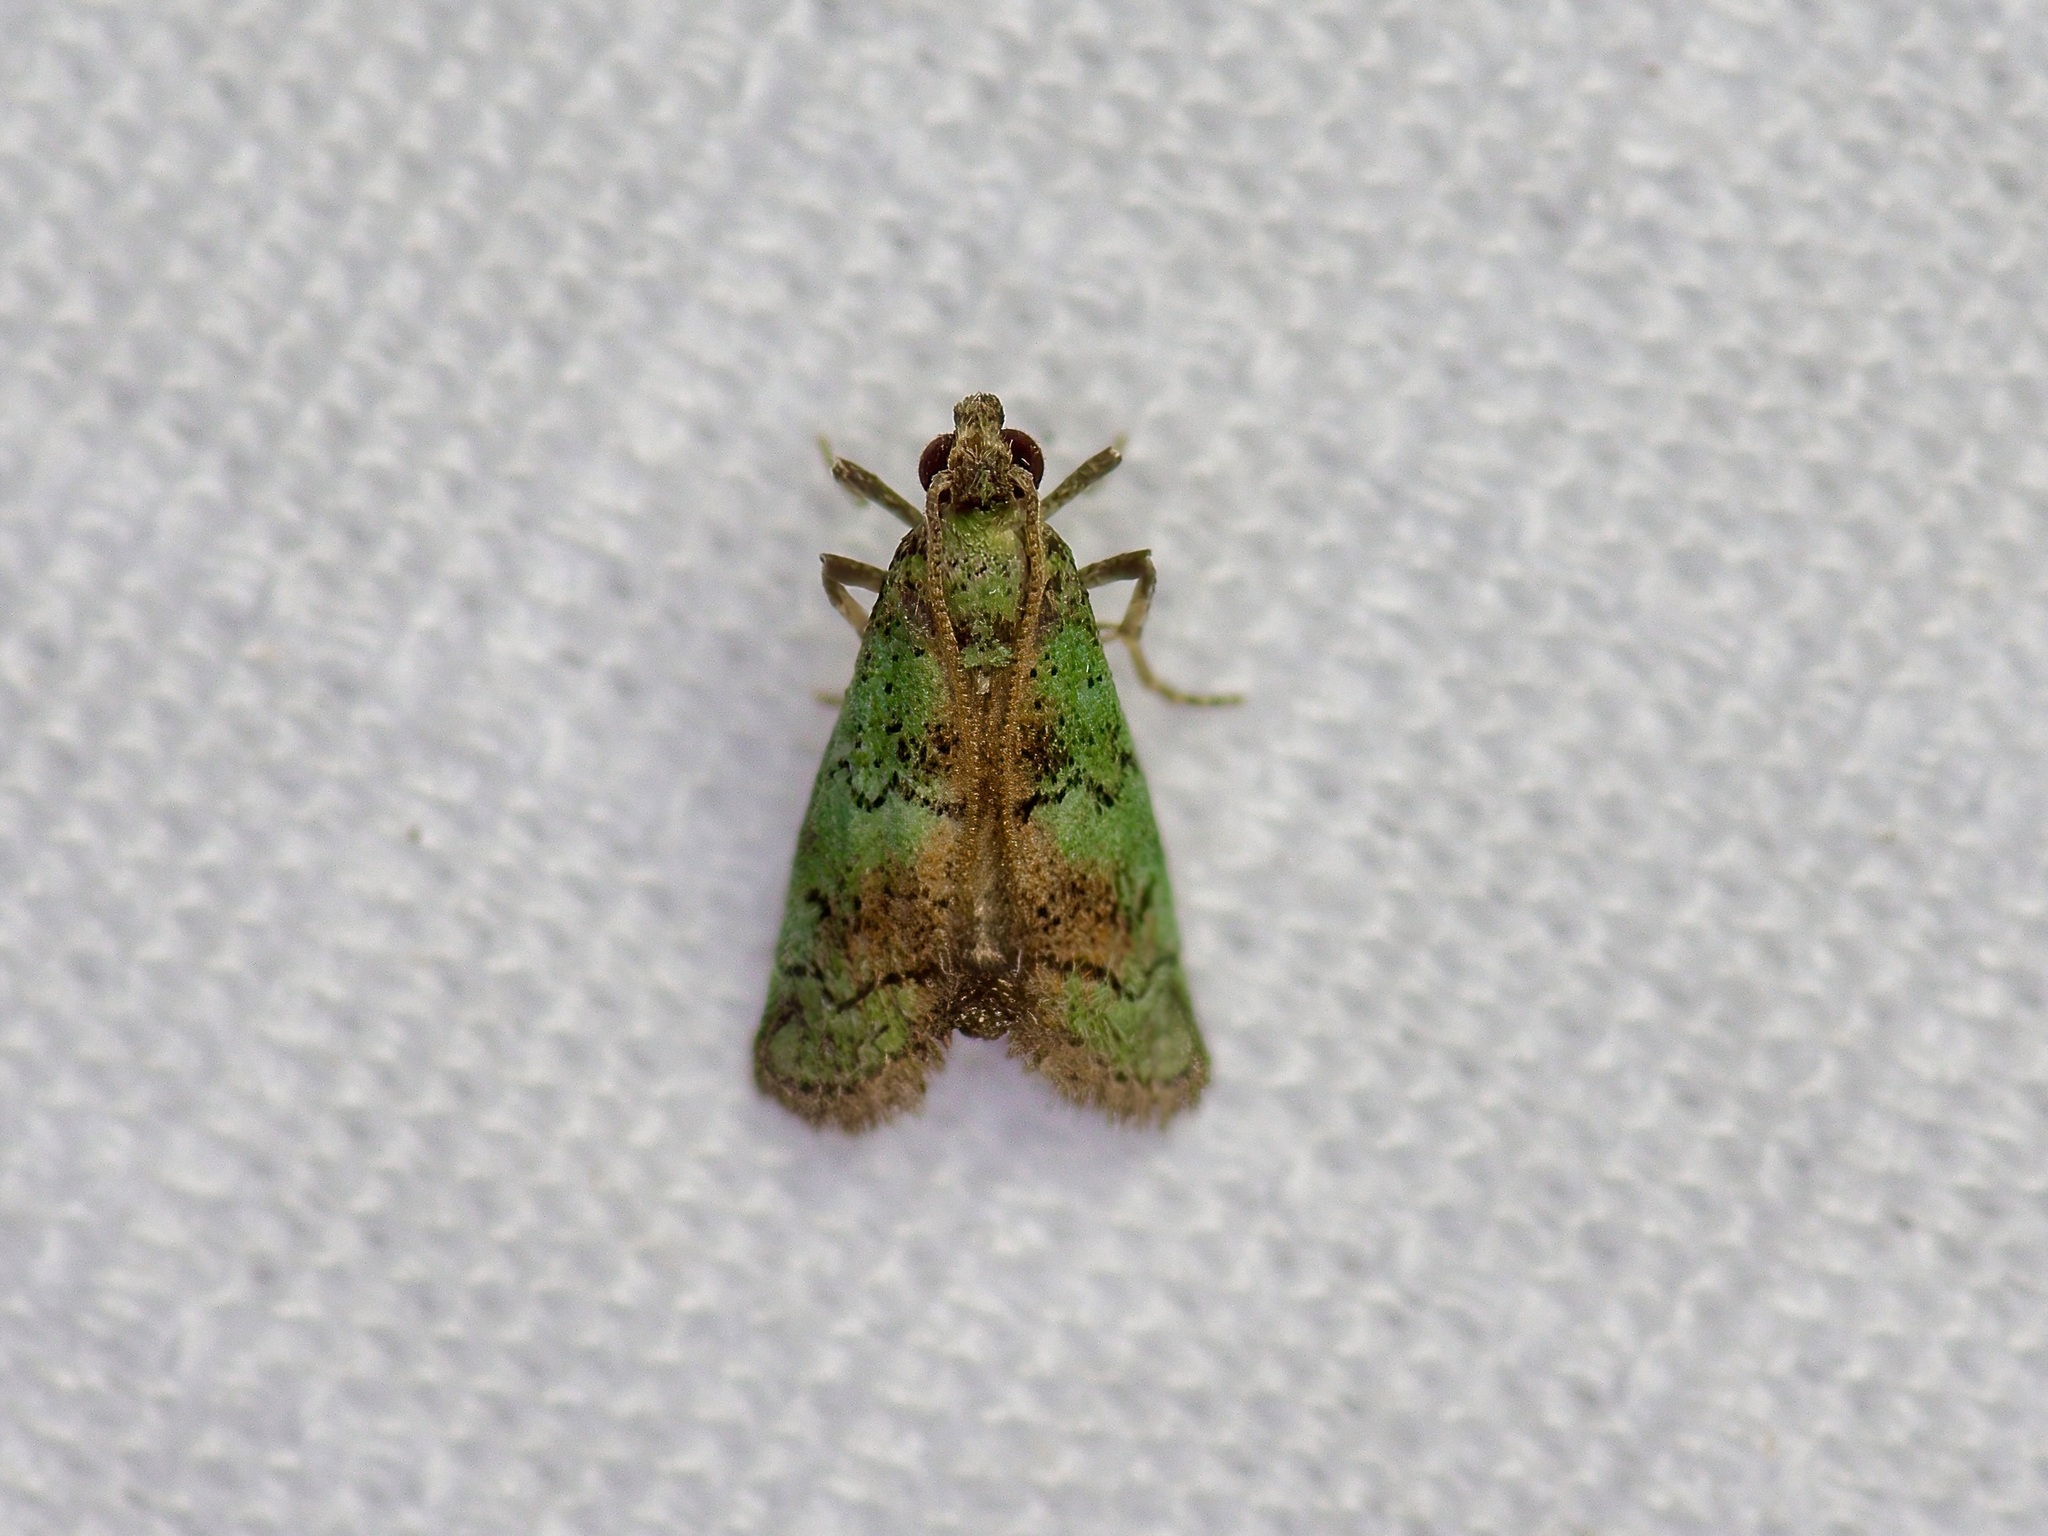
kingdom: Animalia
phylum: Arthropoda
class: Insecta
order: Lepidoptera
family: Pyralidae
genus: Cacotherapia
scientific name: Cacotherapia flexilinealis
